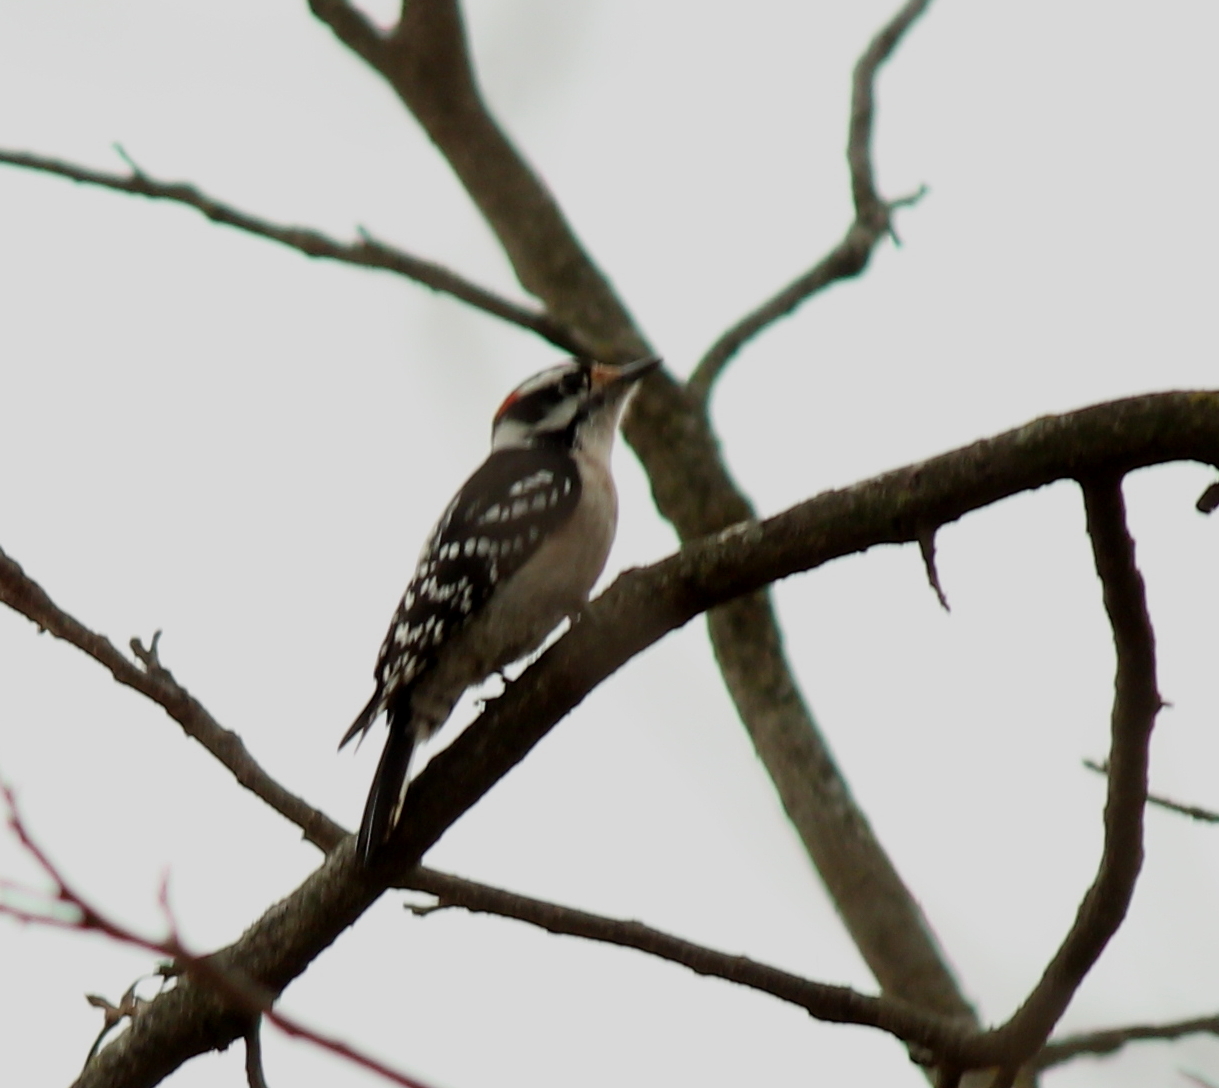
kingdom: Animalia
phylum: Chordata
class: Aves
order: Piciformes
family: Picidae
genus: Dryobates
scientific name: Dryobates pubescens
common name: Downy woodpecker
